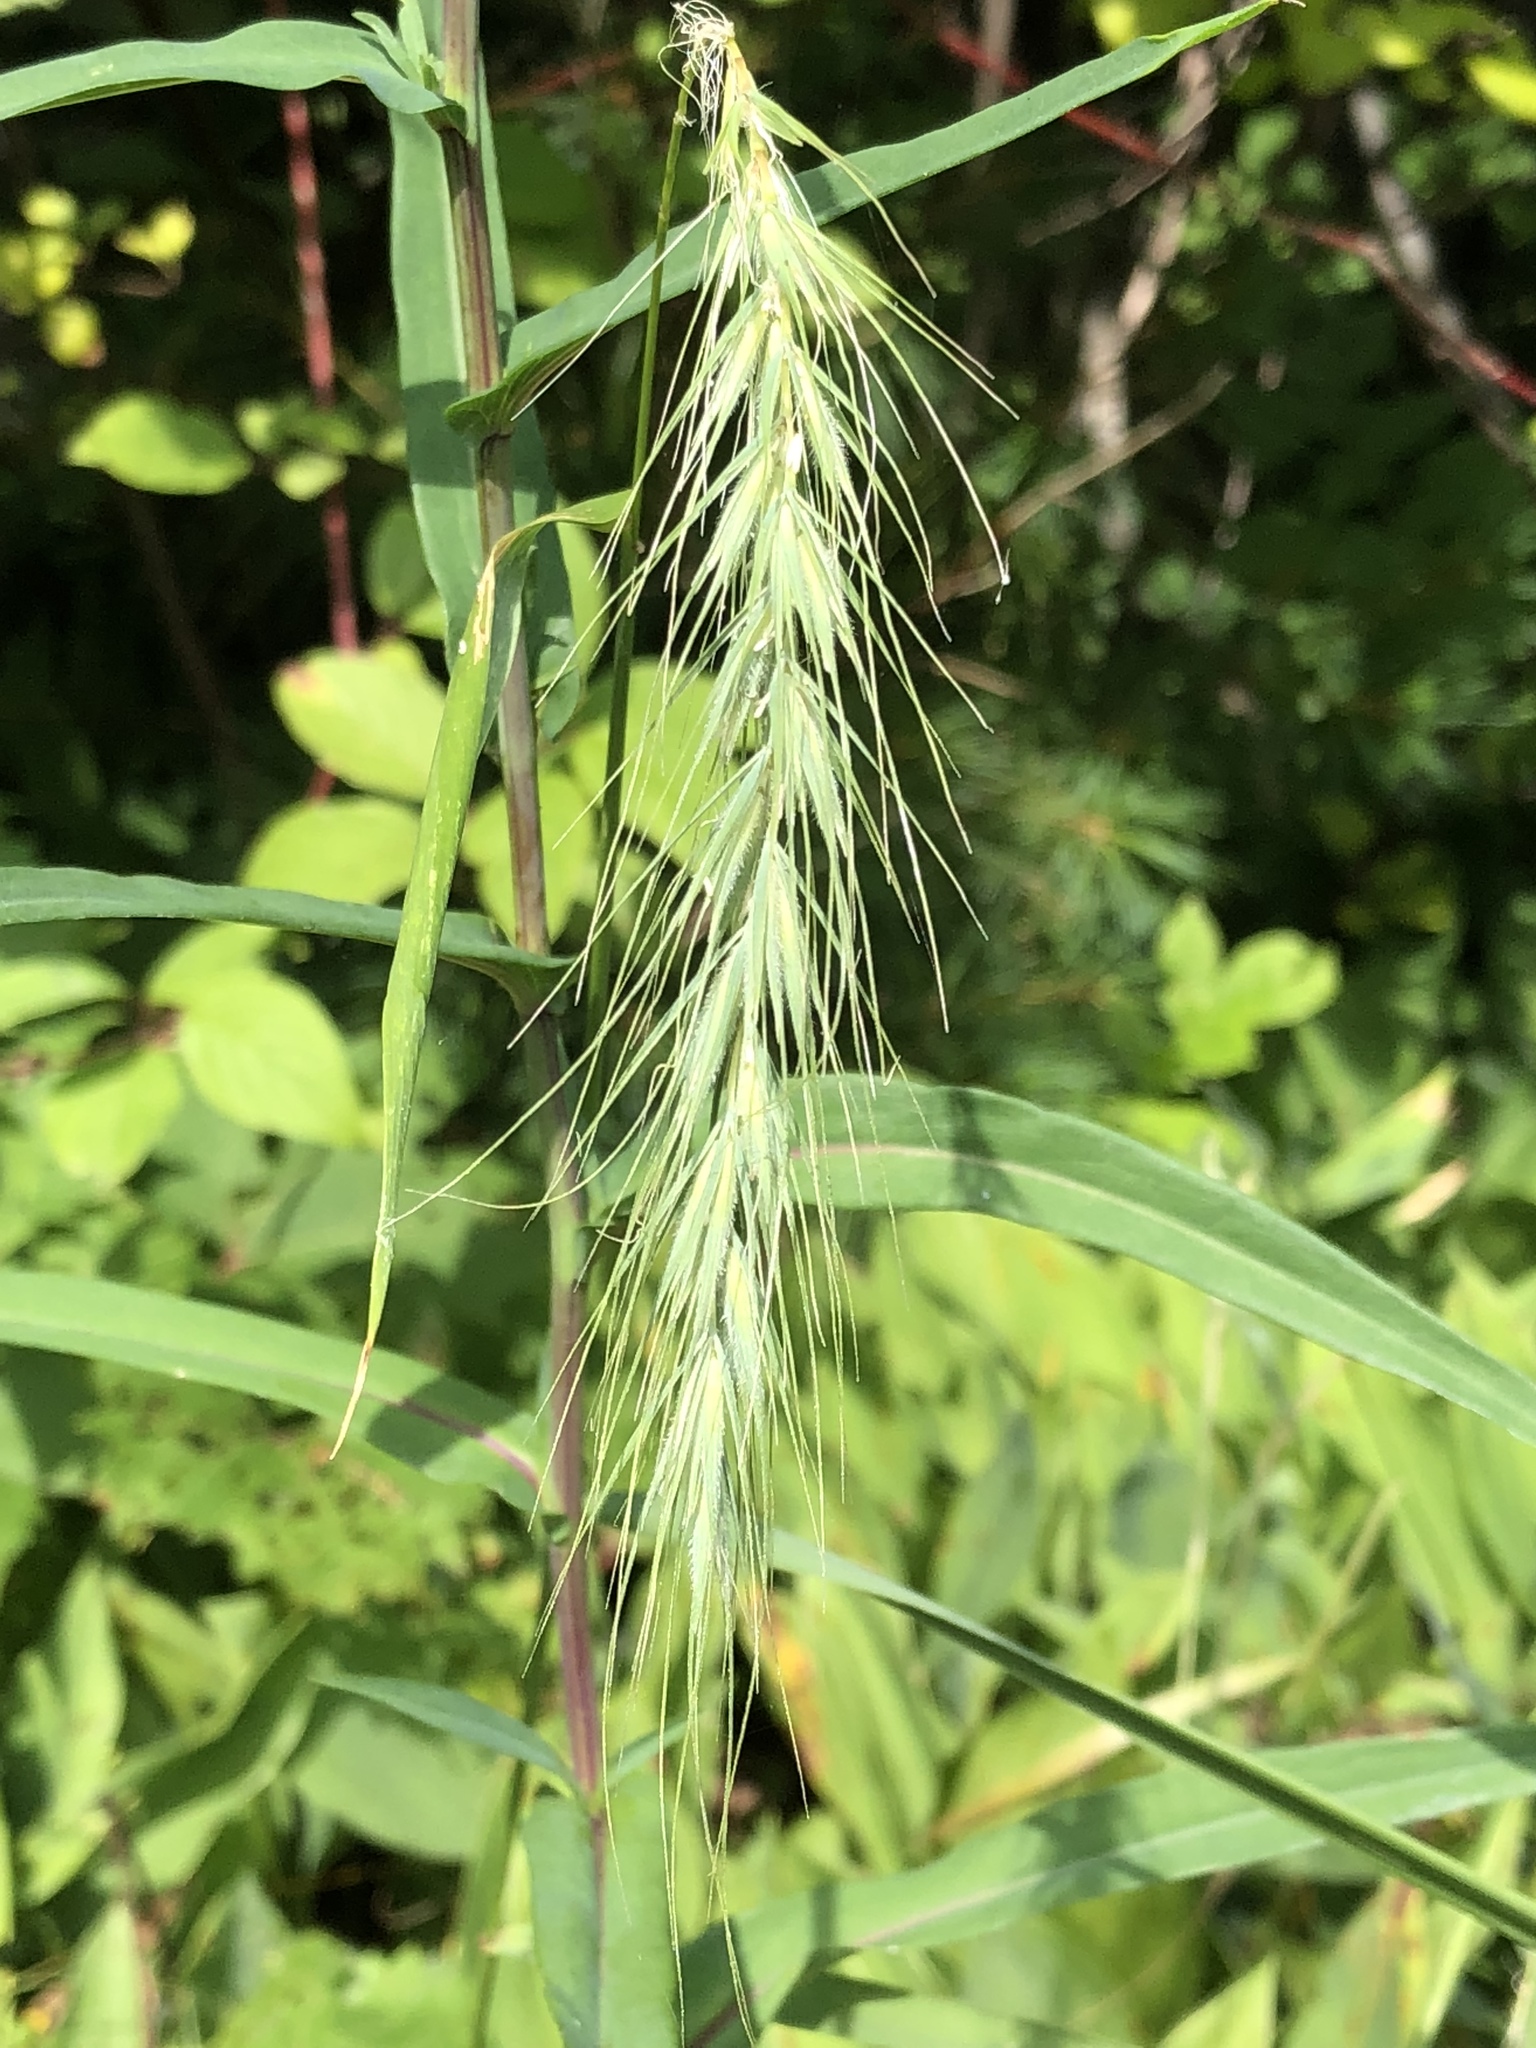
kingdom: Plantae
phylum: Tracheophyta
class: Liliopsida
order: Poales
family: Poaceae
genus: Elymus
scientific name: Elymus canadensis
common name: Canada wild rye
